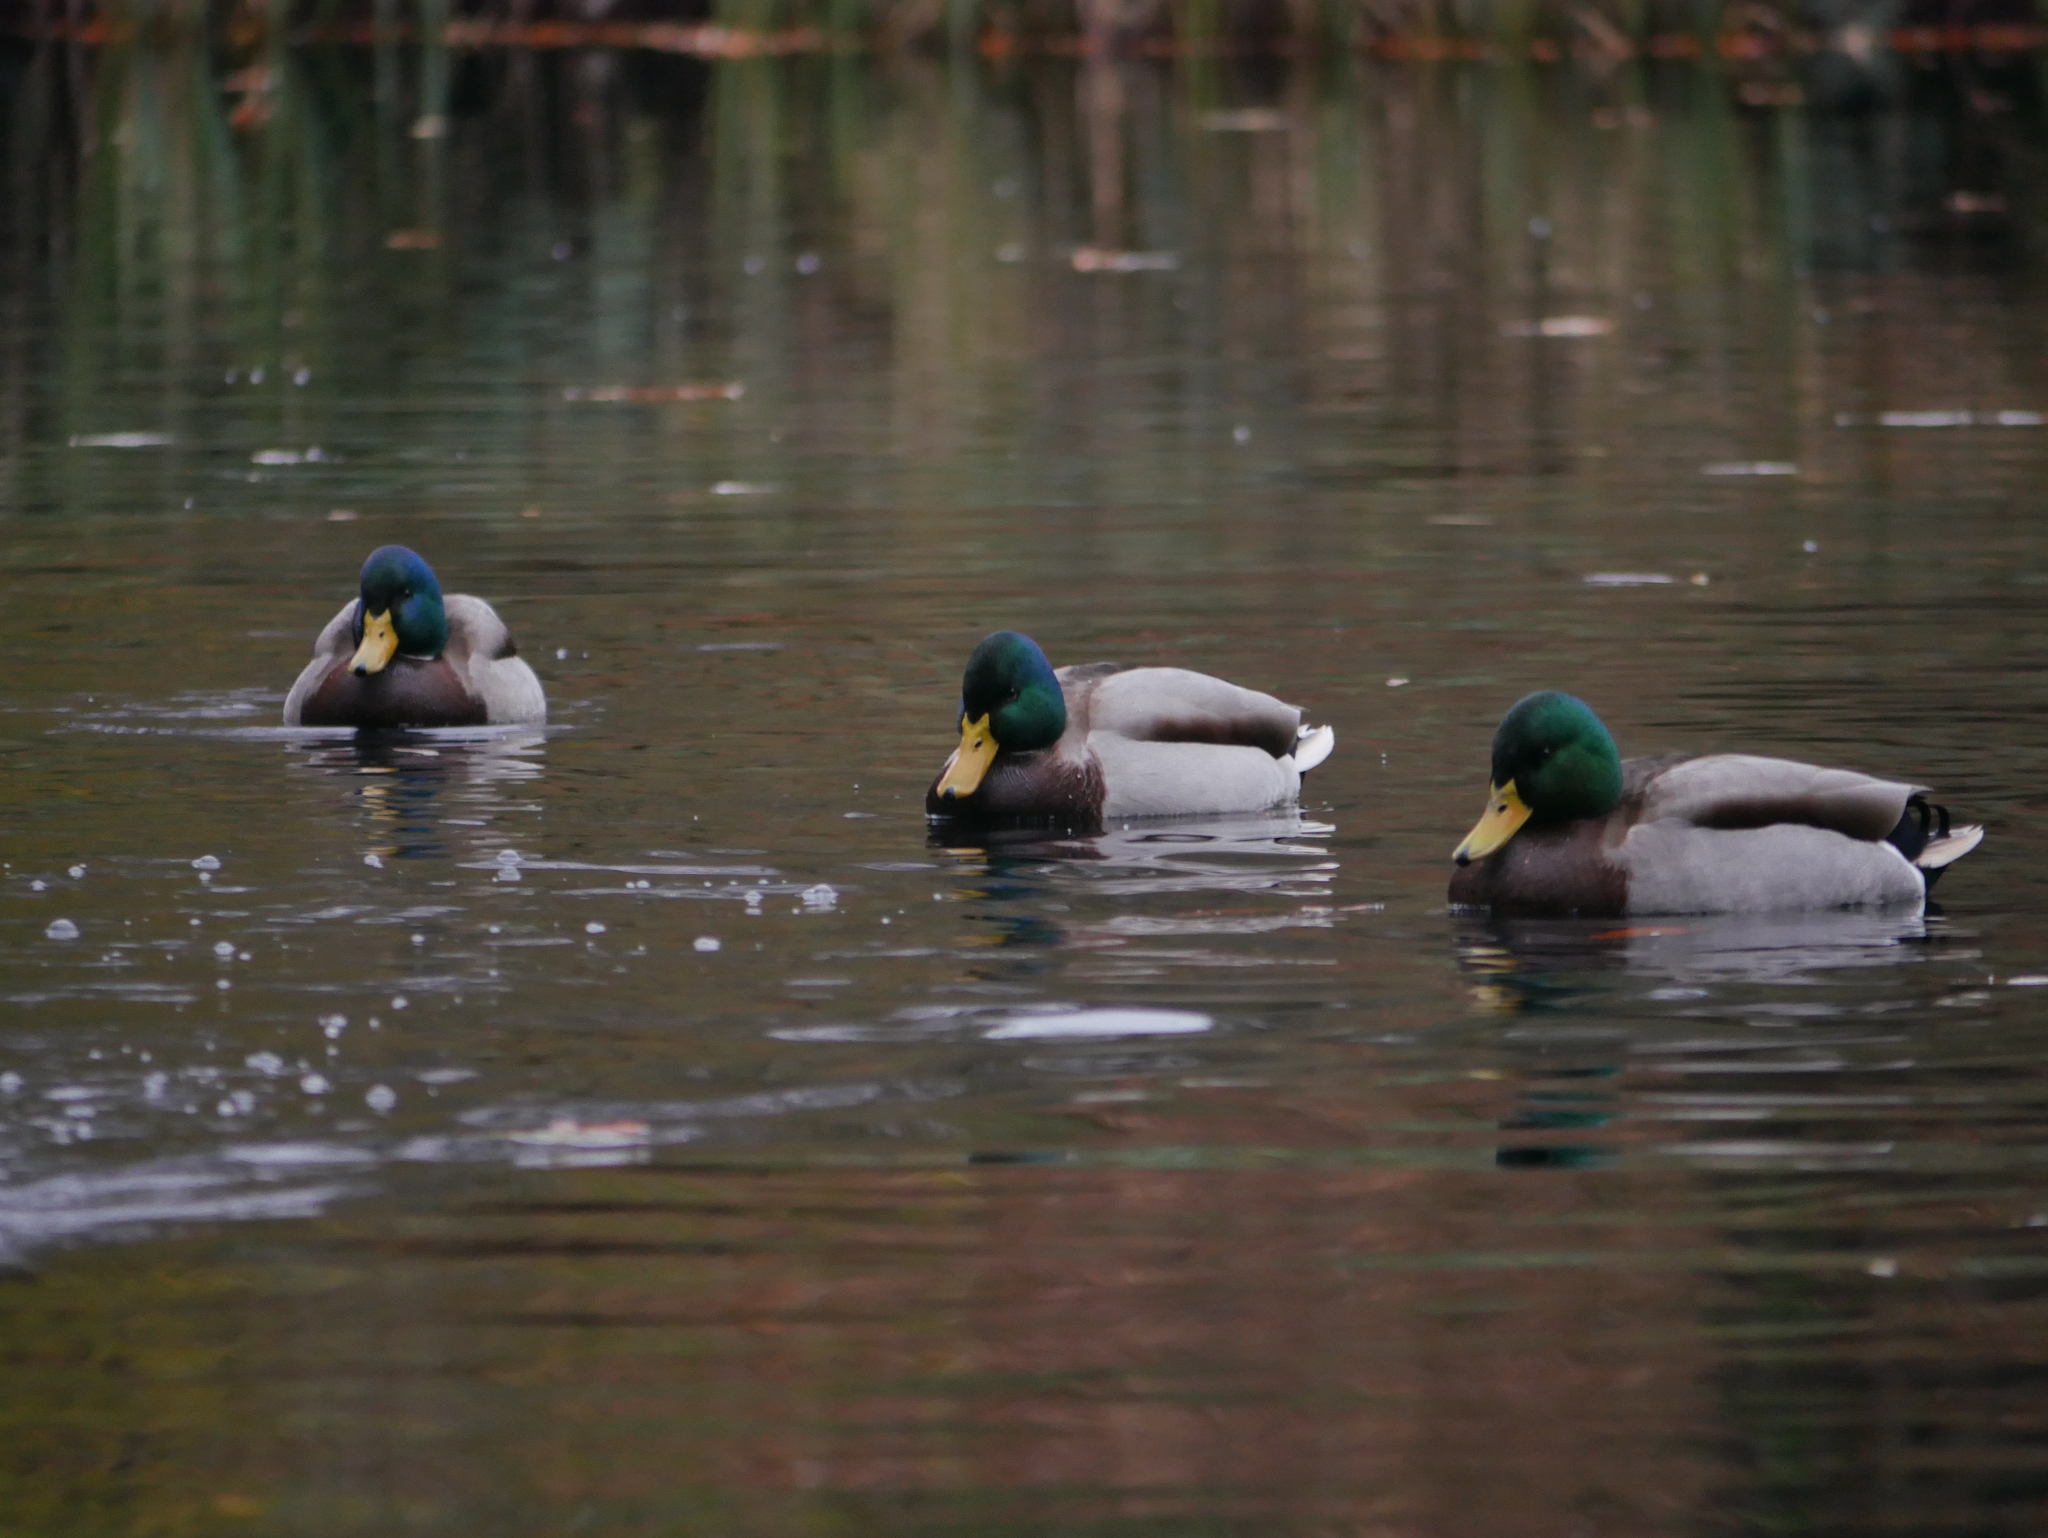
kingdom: Animalia
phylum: Chordata
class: Aves
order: Anseriformes
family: Anatidae
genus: Anas
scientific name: Anas platyrhynchos
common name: Mallard
